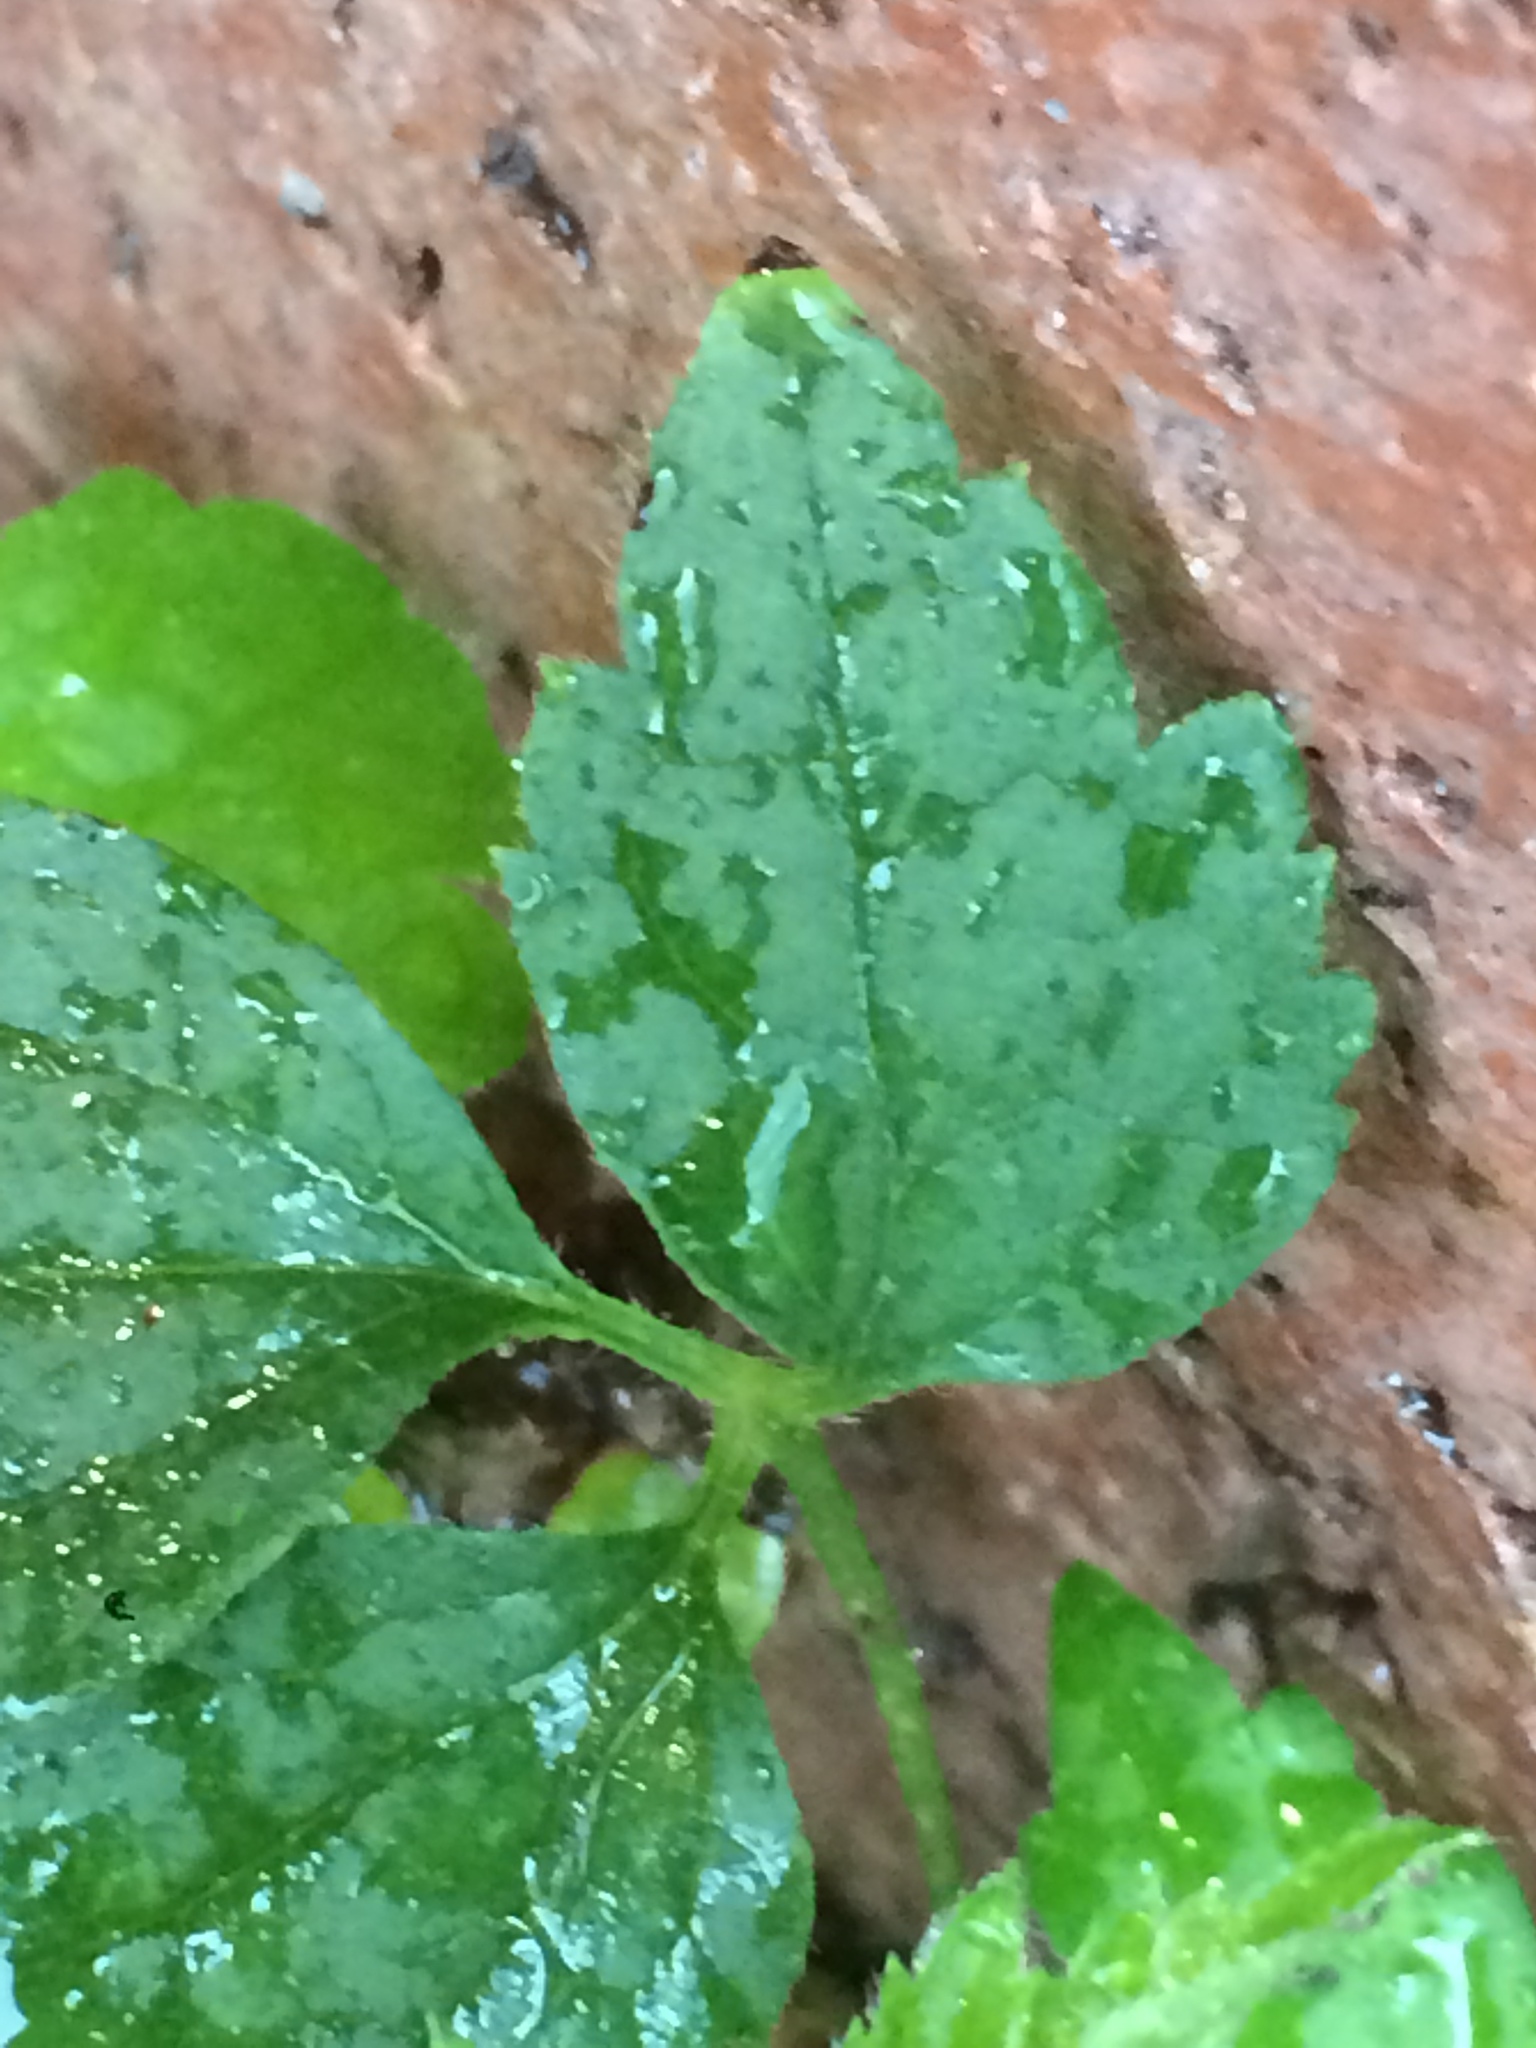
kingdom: Plantae
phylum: Tracheophyta
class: Magnoliopsida
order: Ranunculales
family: Ranunculaceae
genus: Clematis
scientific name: Clematis vitalba
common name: Evergreen clematis
